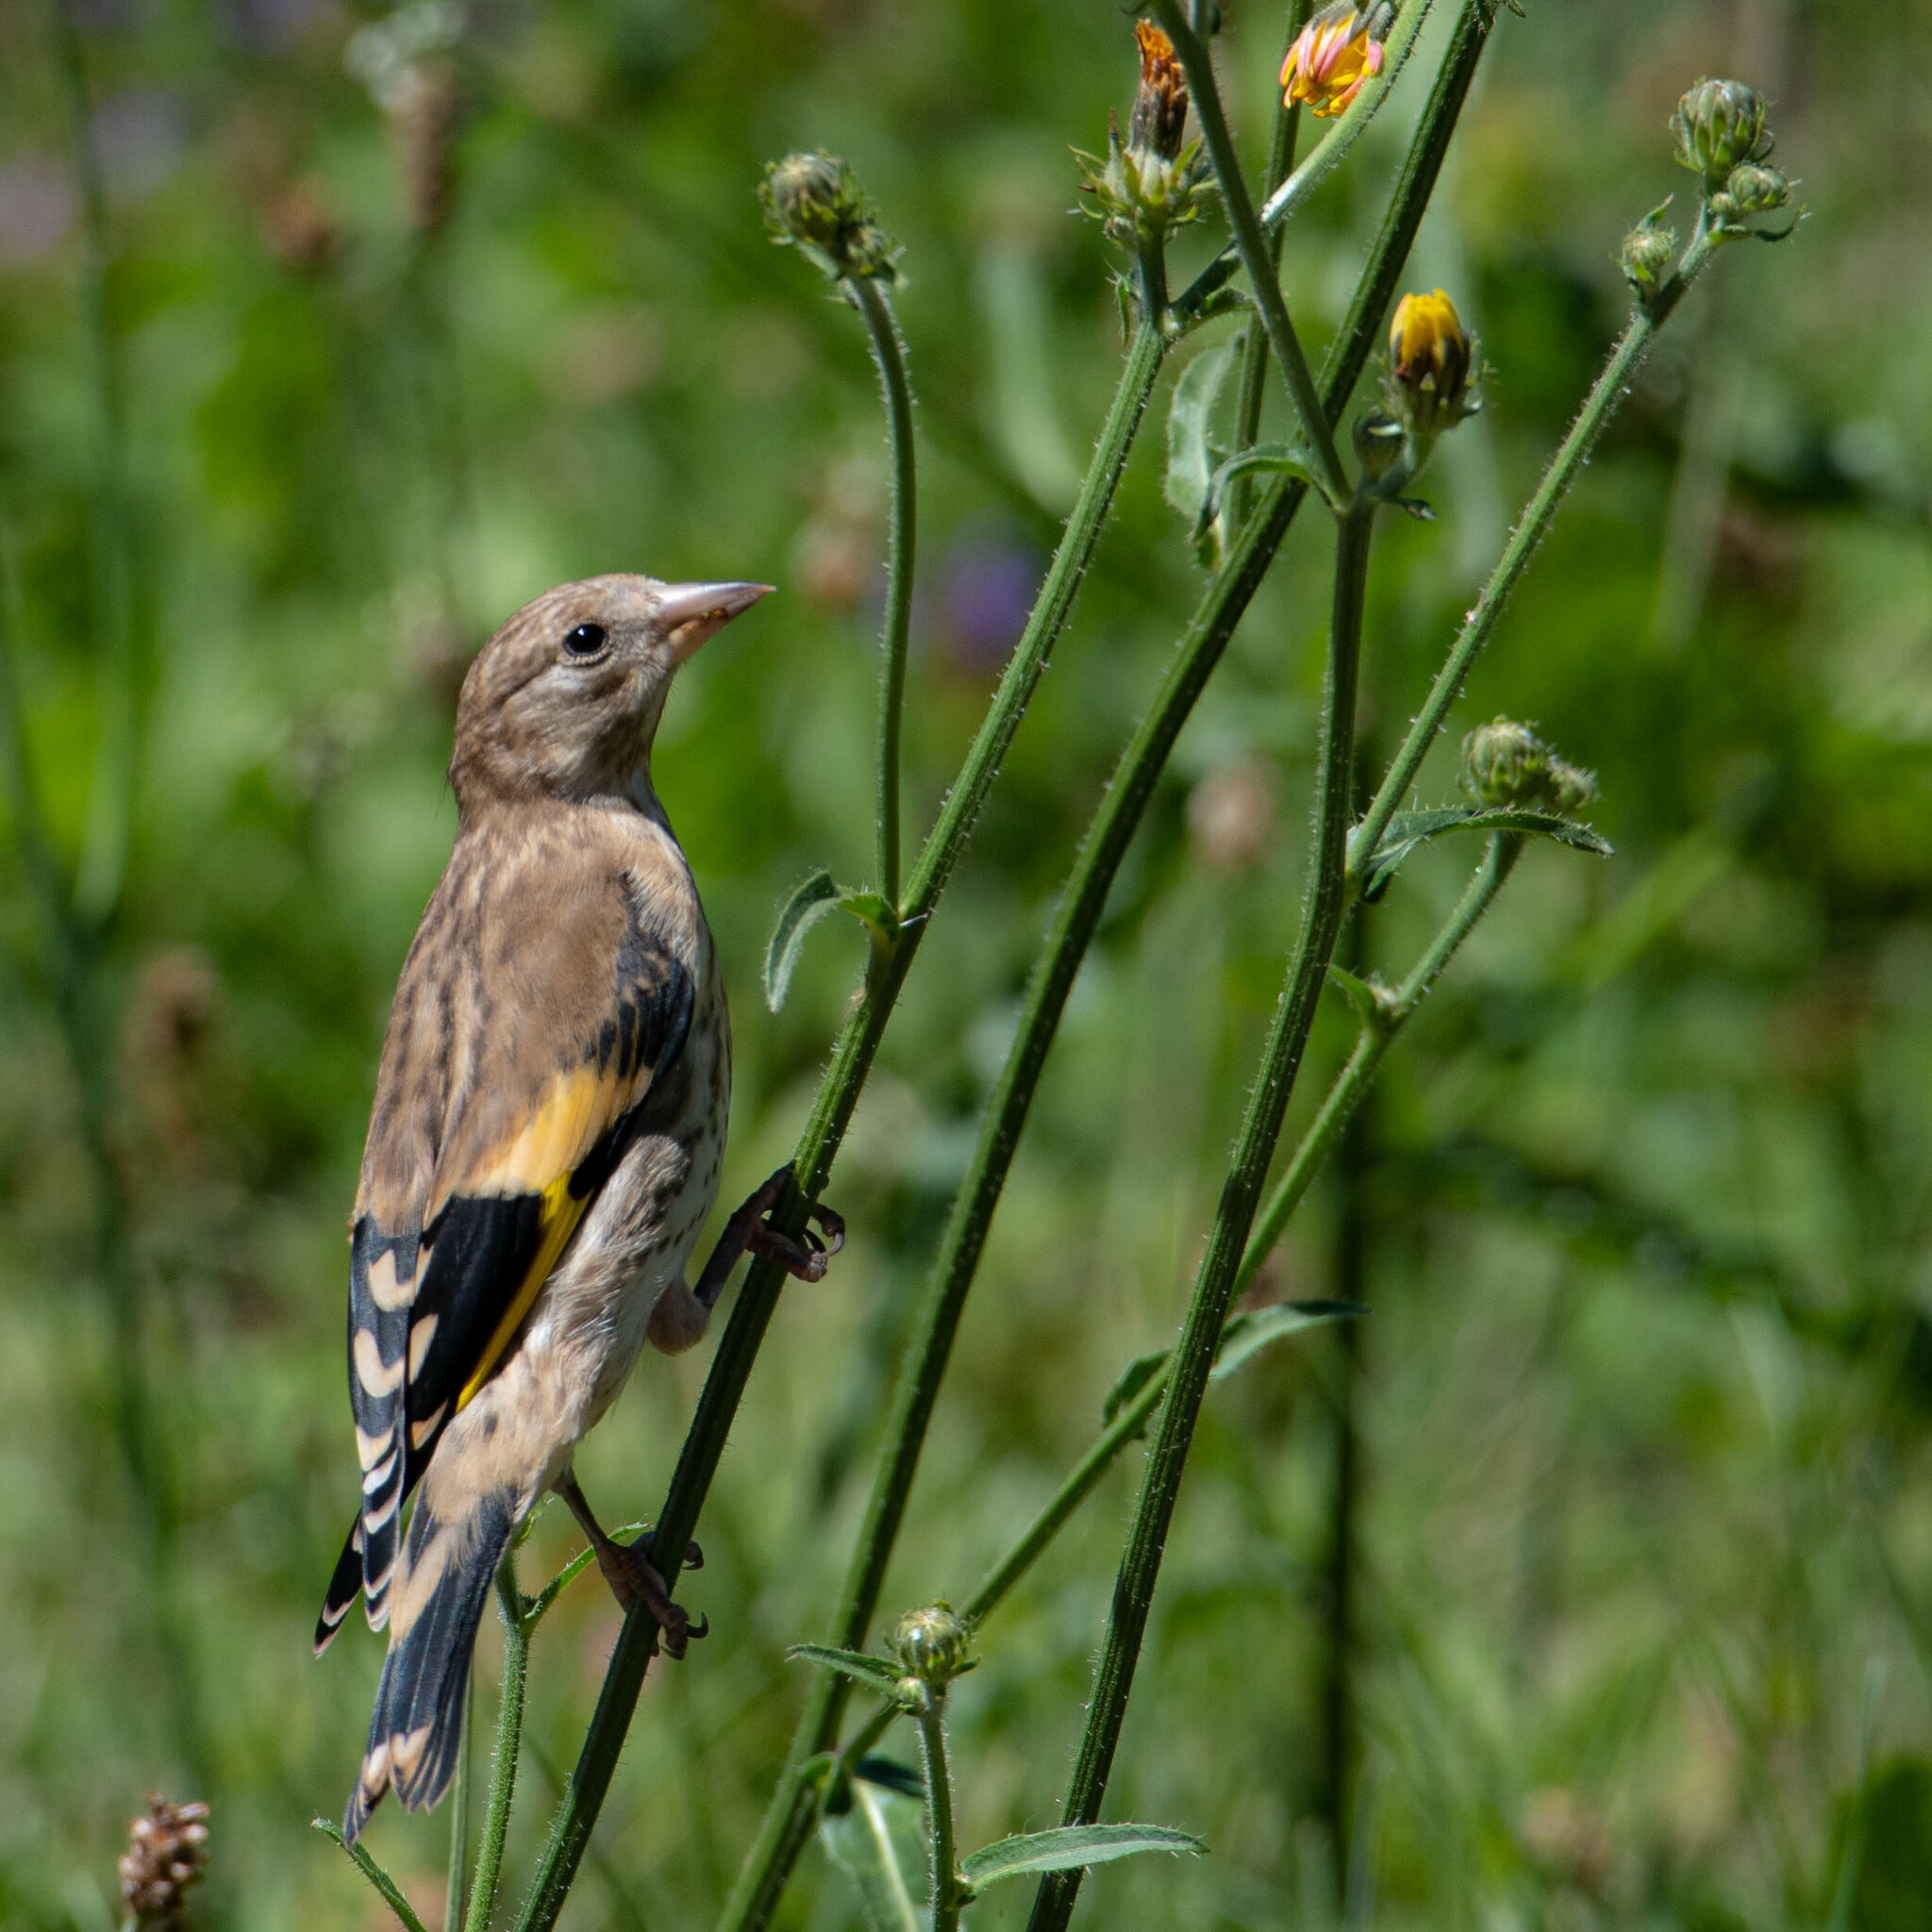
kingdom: Animalia
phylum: Chordata
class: Aves
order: Passeriformes
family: Fringillidae
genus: Carduelis
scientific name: Carduelis carduelis
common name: European goldfinch
